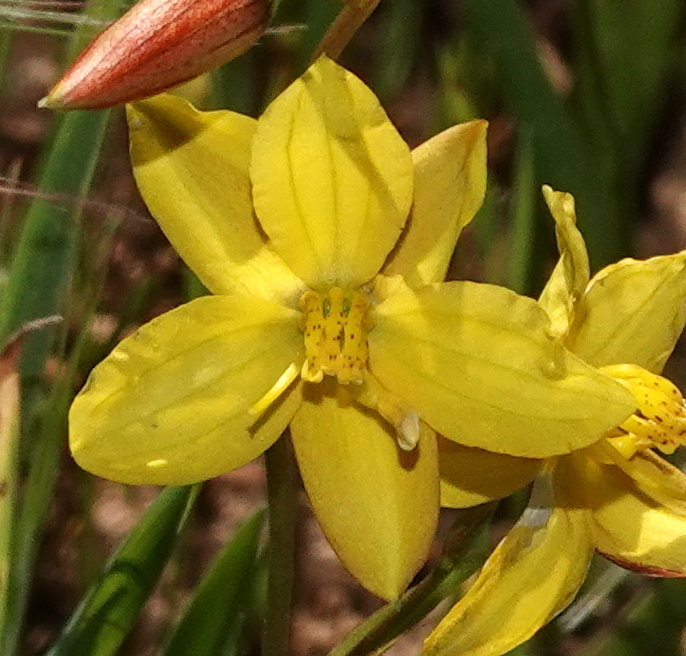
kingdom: Plantae
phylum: Tracheophyta
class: Liliopsida
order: Asparagales
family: Tecophilaeaceae
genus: Cyanella
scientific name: Cyanella lutea
